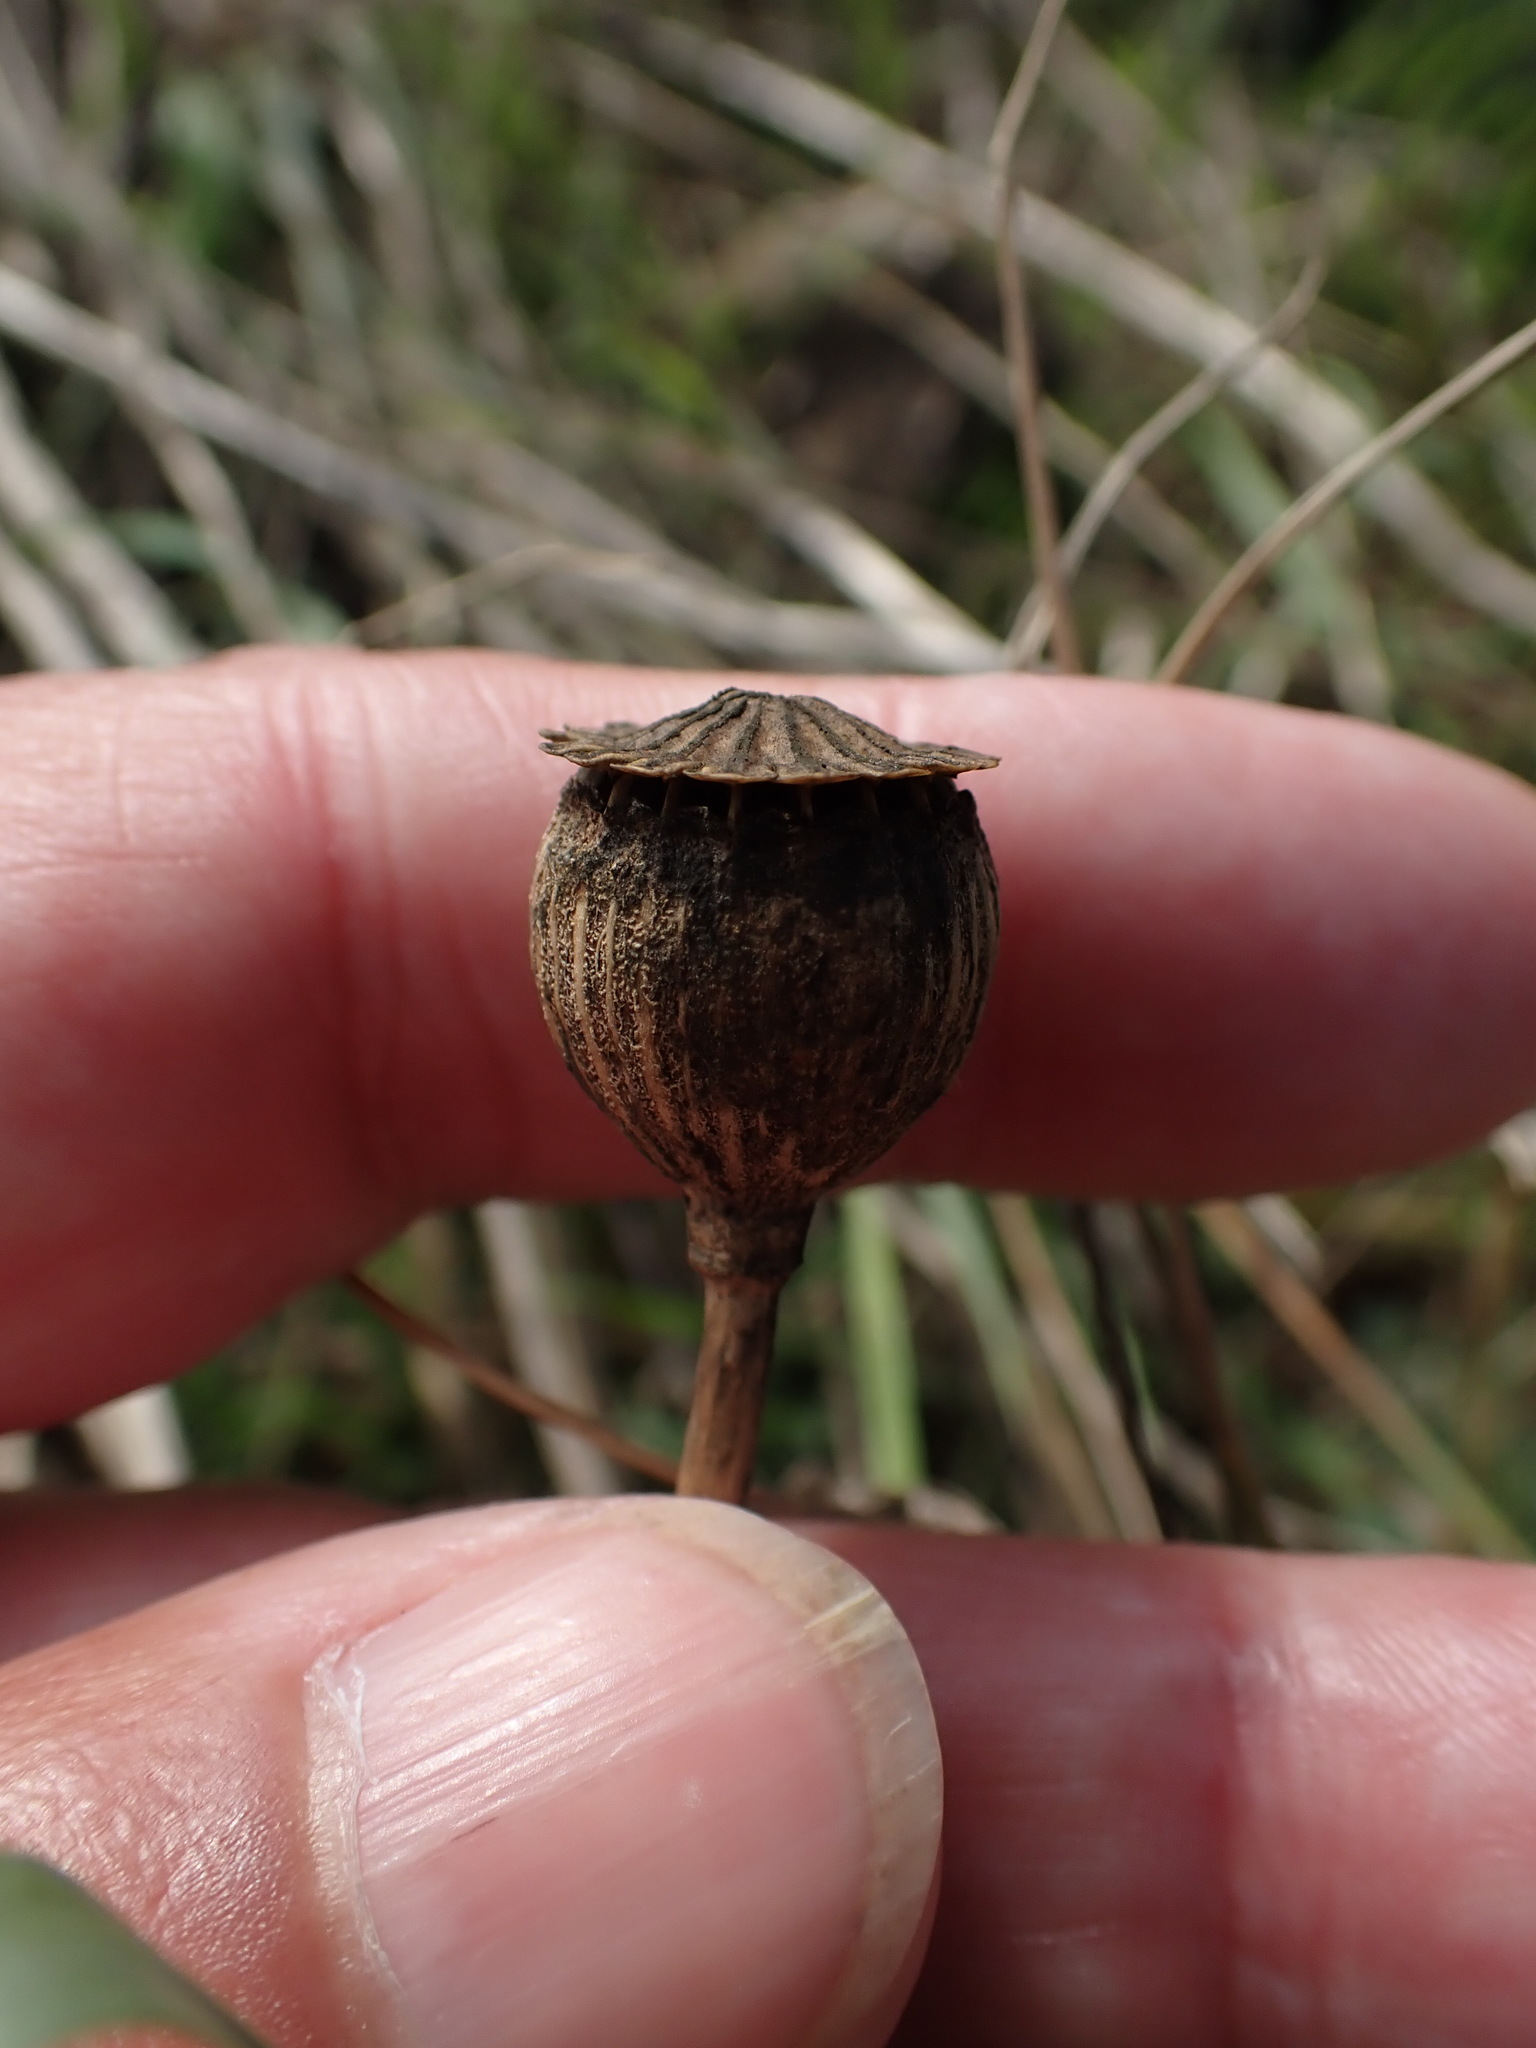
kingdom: Plantae
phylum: Tracheophyta
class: Magnoliopsida
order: Ranunculales
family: Papaveraceae
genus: Papaver
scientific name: Papaver rhoeas
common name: Corn poppy
